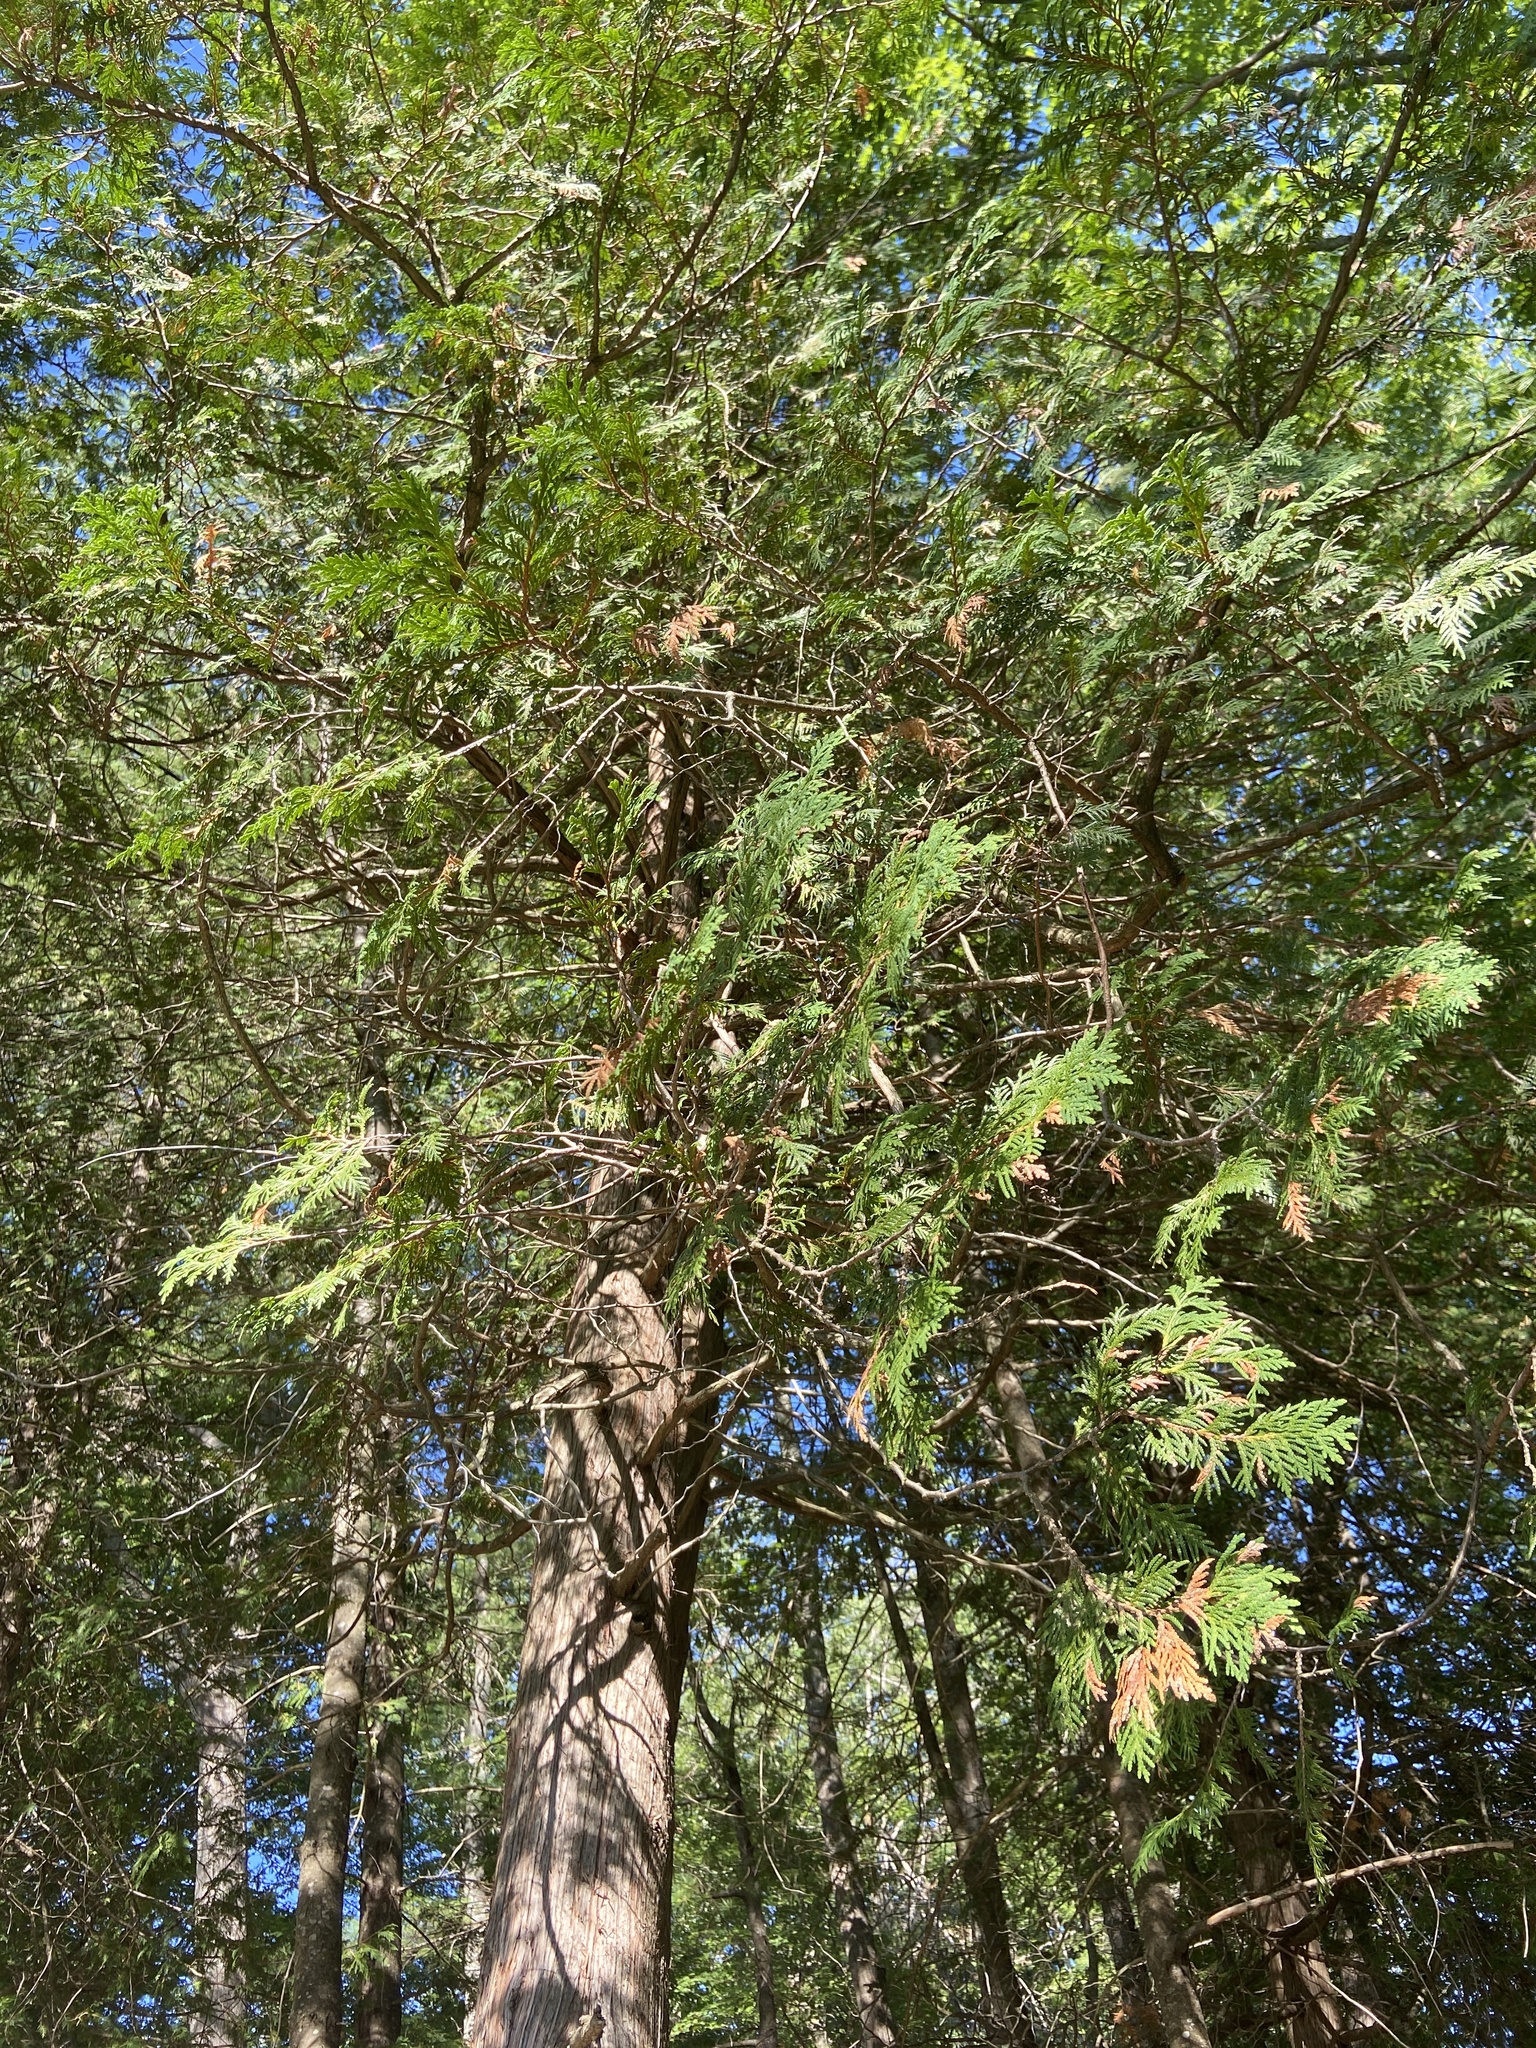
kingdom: Plantae
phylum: Tracheophyta
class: Pinopsida
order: Pinales
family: Cupressaceae
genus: Thuja
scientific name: Thuja occidentalis
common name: Northern white-cedar
